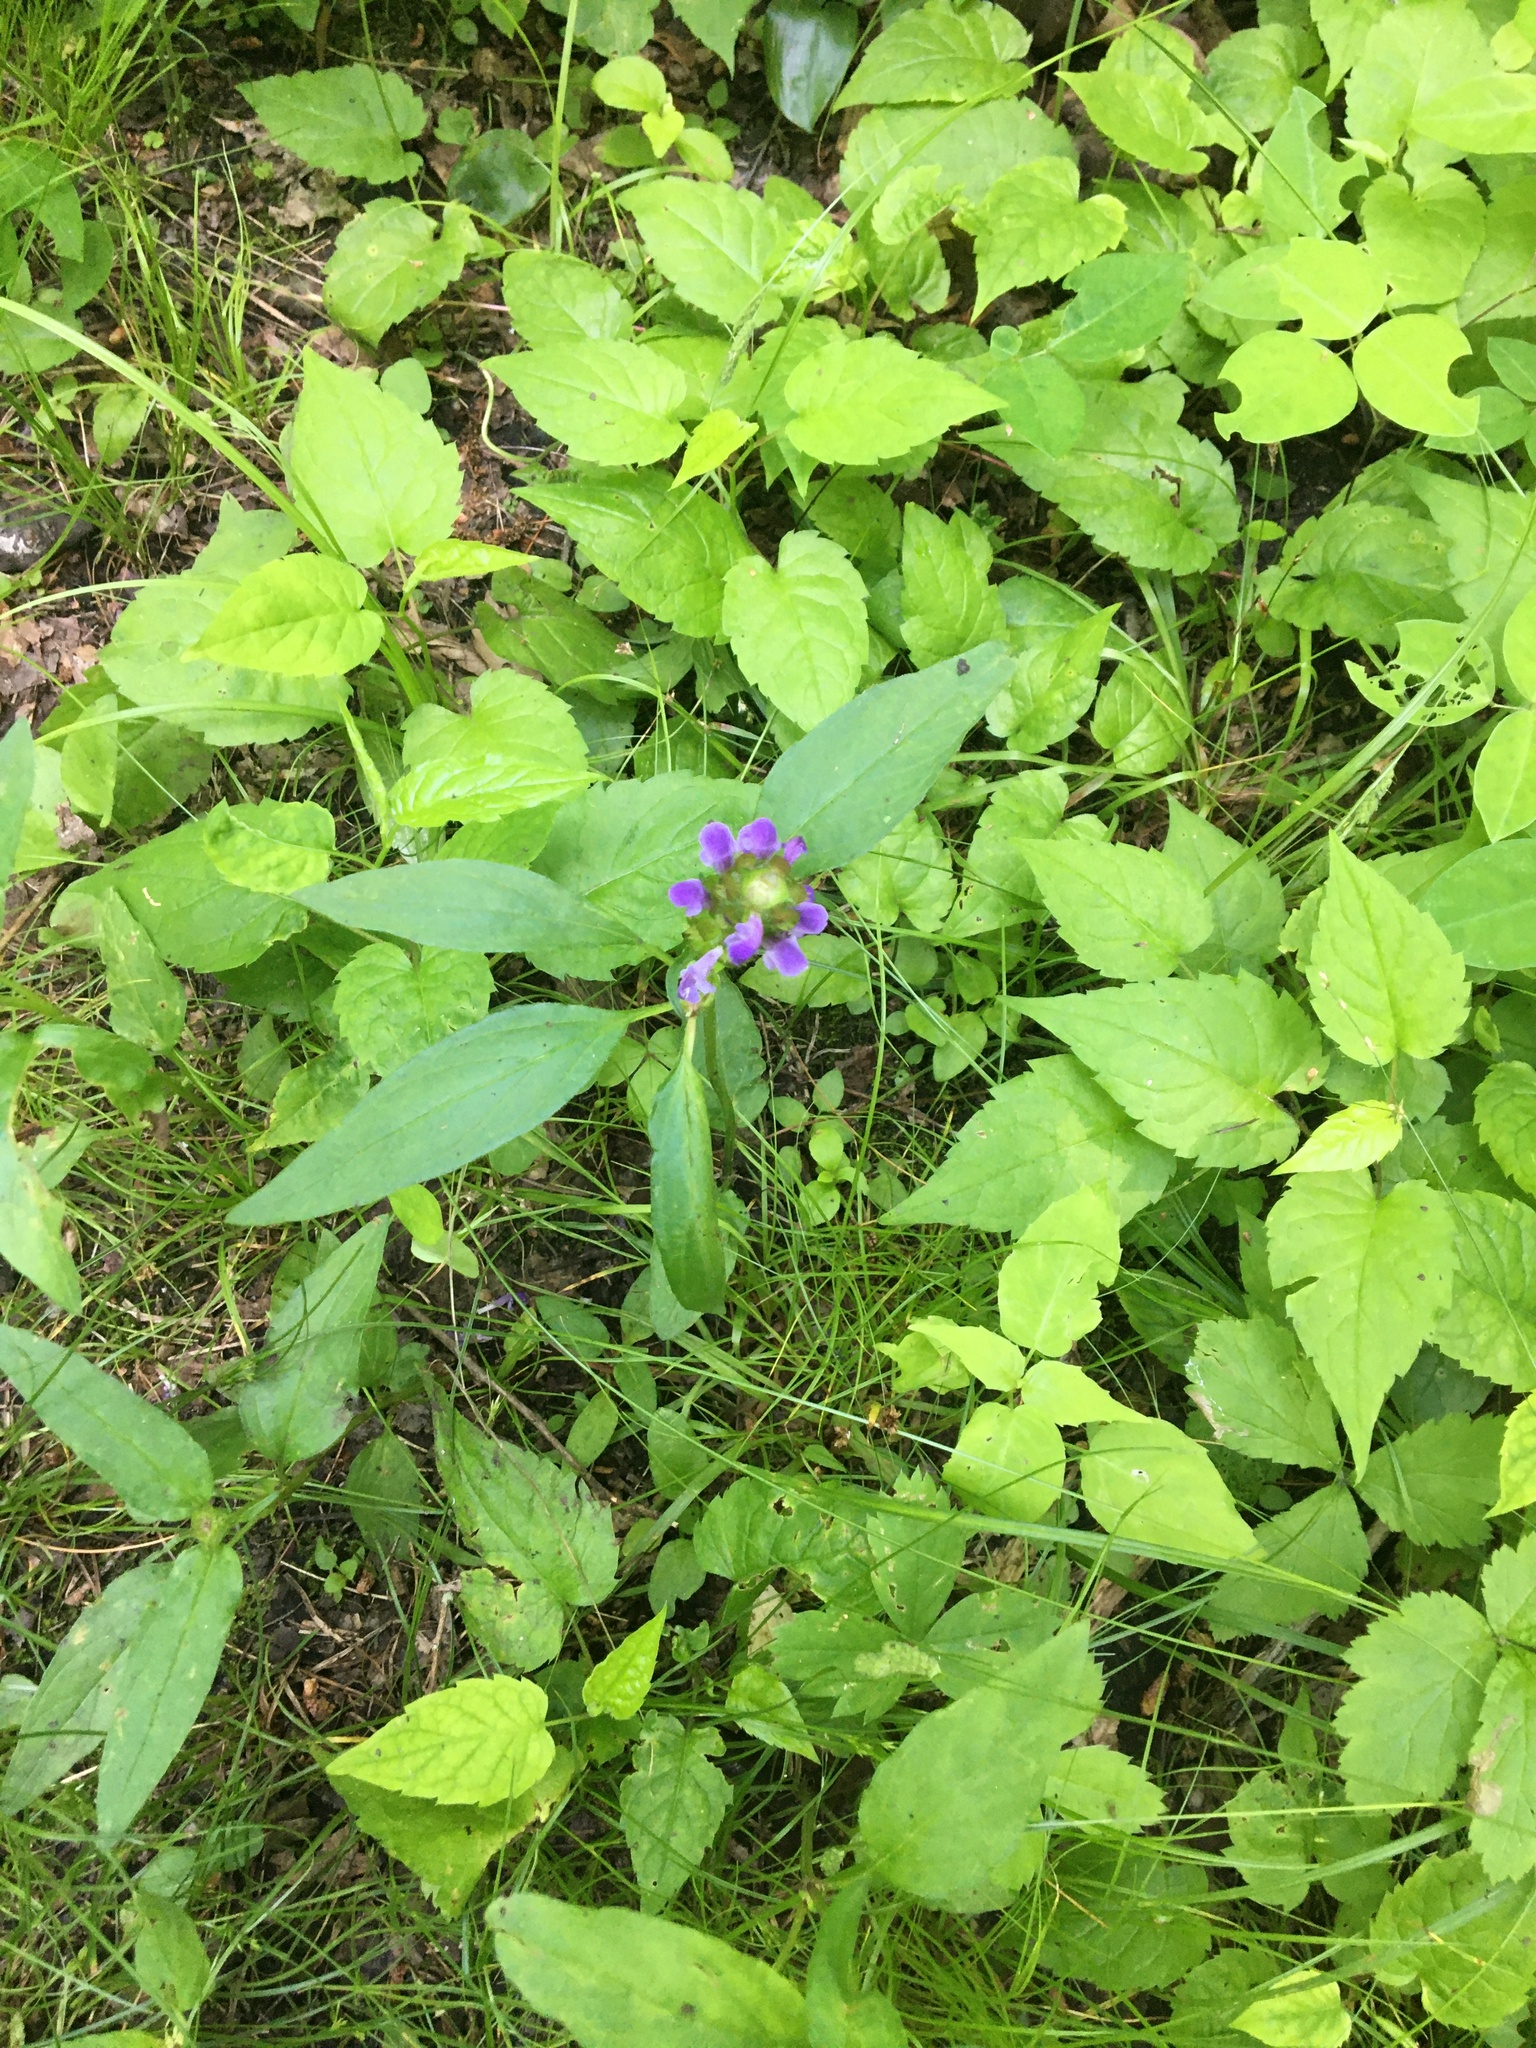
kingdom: Plantae
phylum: Tracheophyta
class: Magnoliopsida
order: Lamiales
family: Lamiaceae
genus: Prunella
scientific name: Prunella vulgaris
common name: Heal-all
